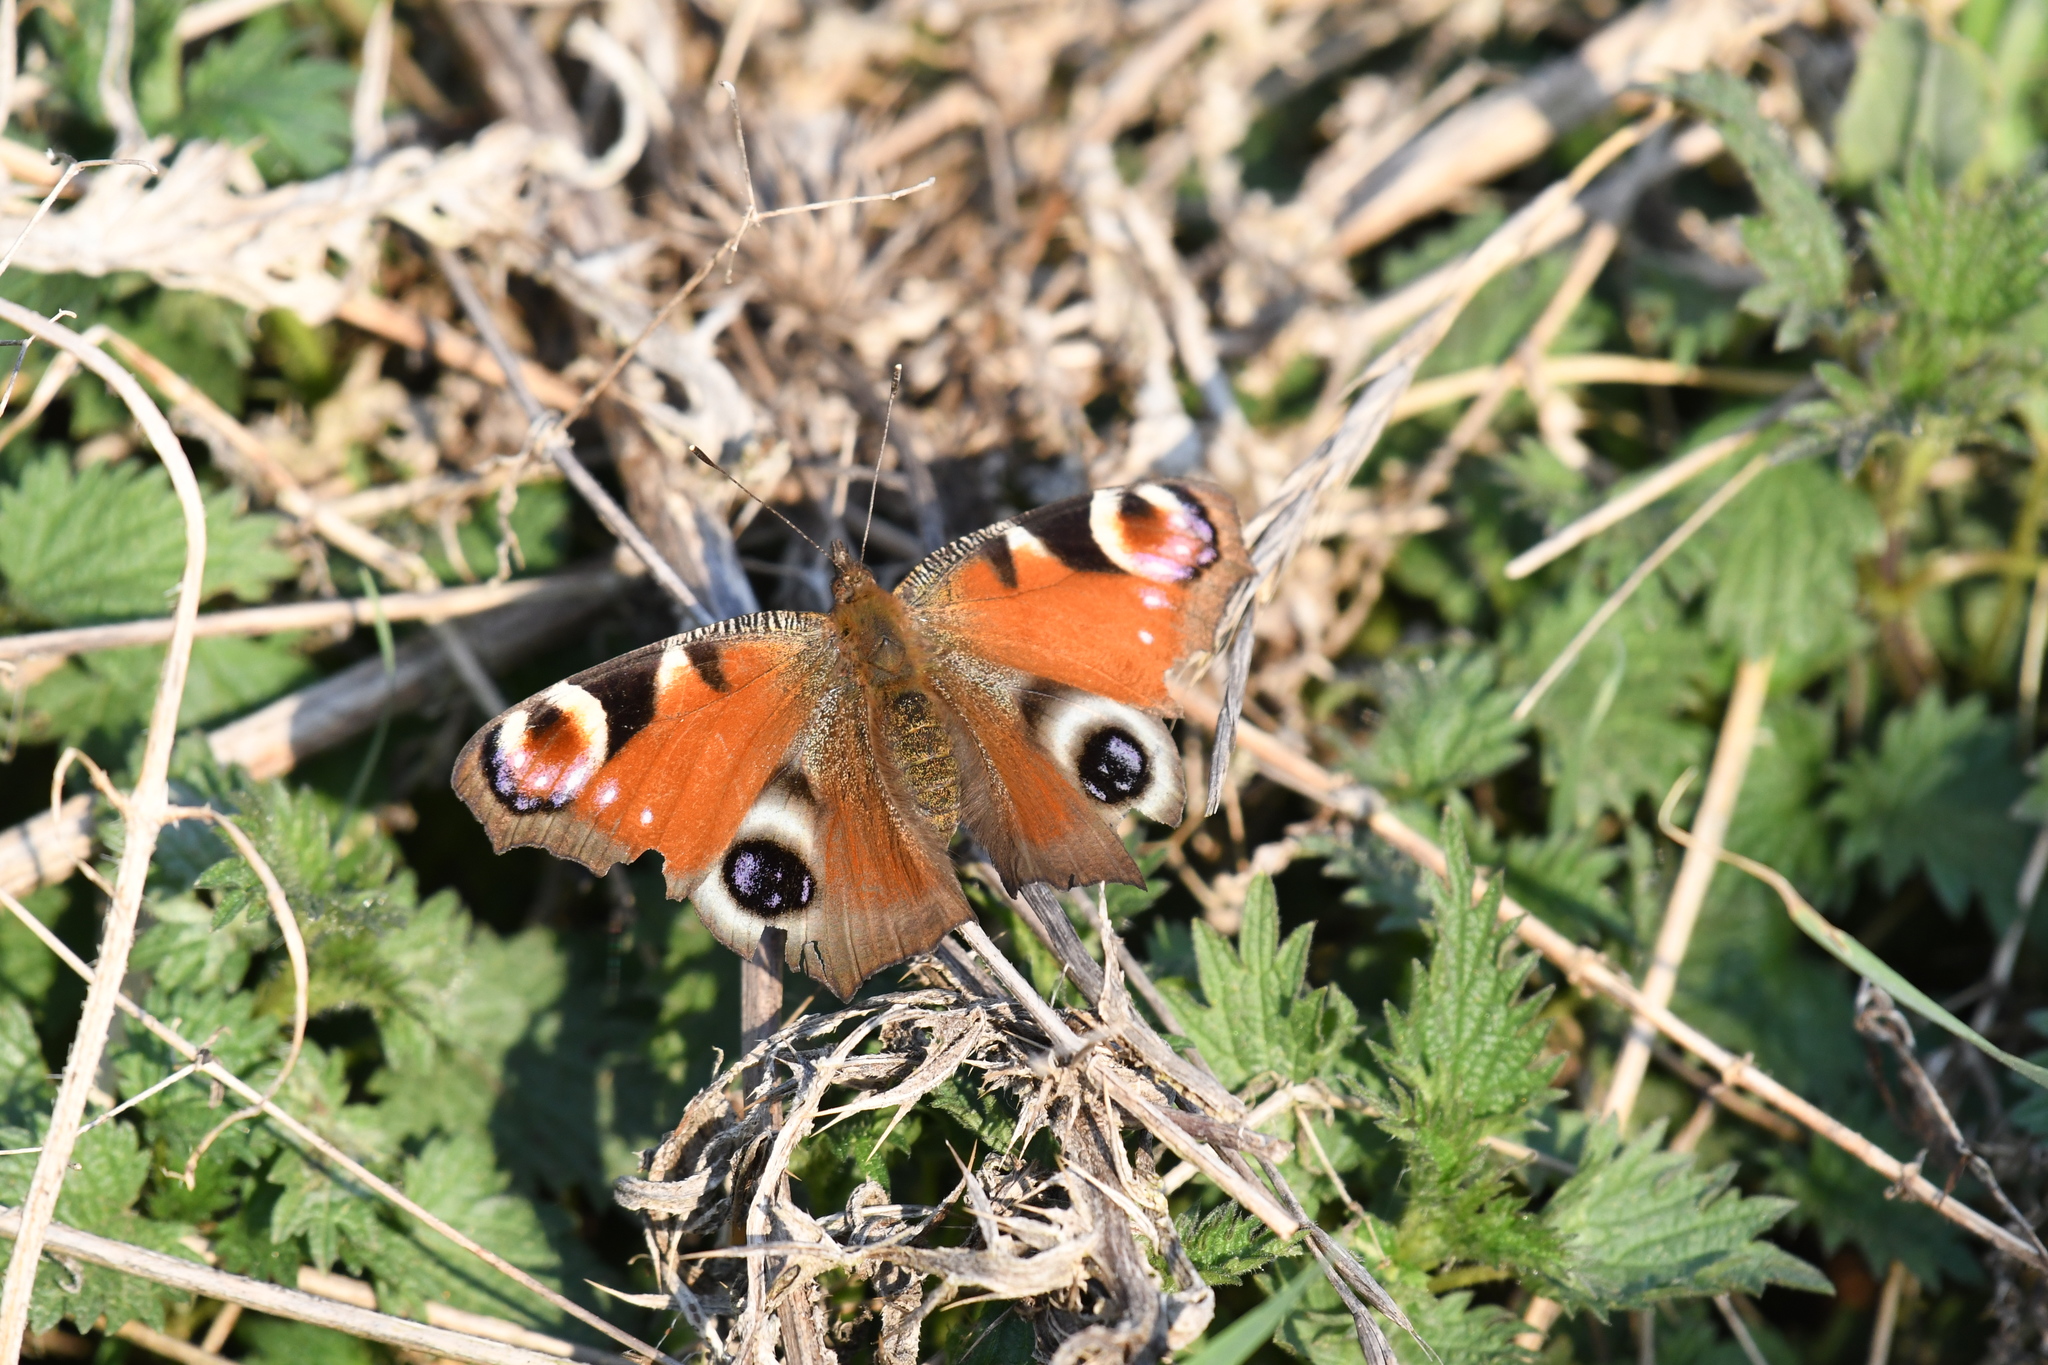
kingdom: Animalia
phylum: Arthropoda
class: Insecta
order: Lepidoptera
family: Nymphalidae
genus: Aglais
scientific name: Aglais io
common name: Peacock
